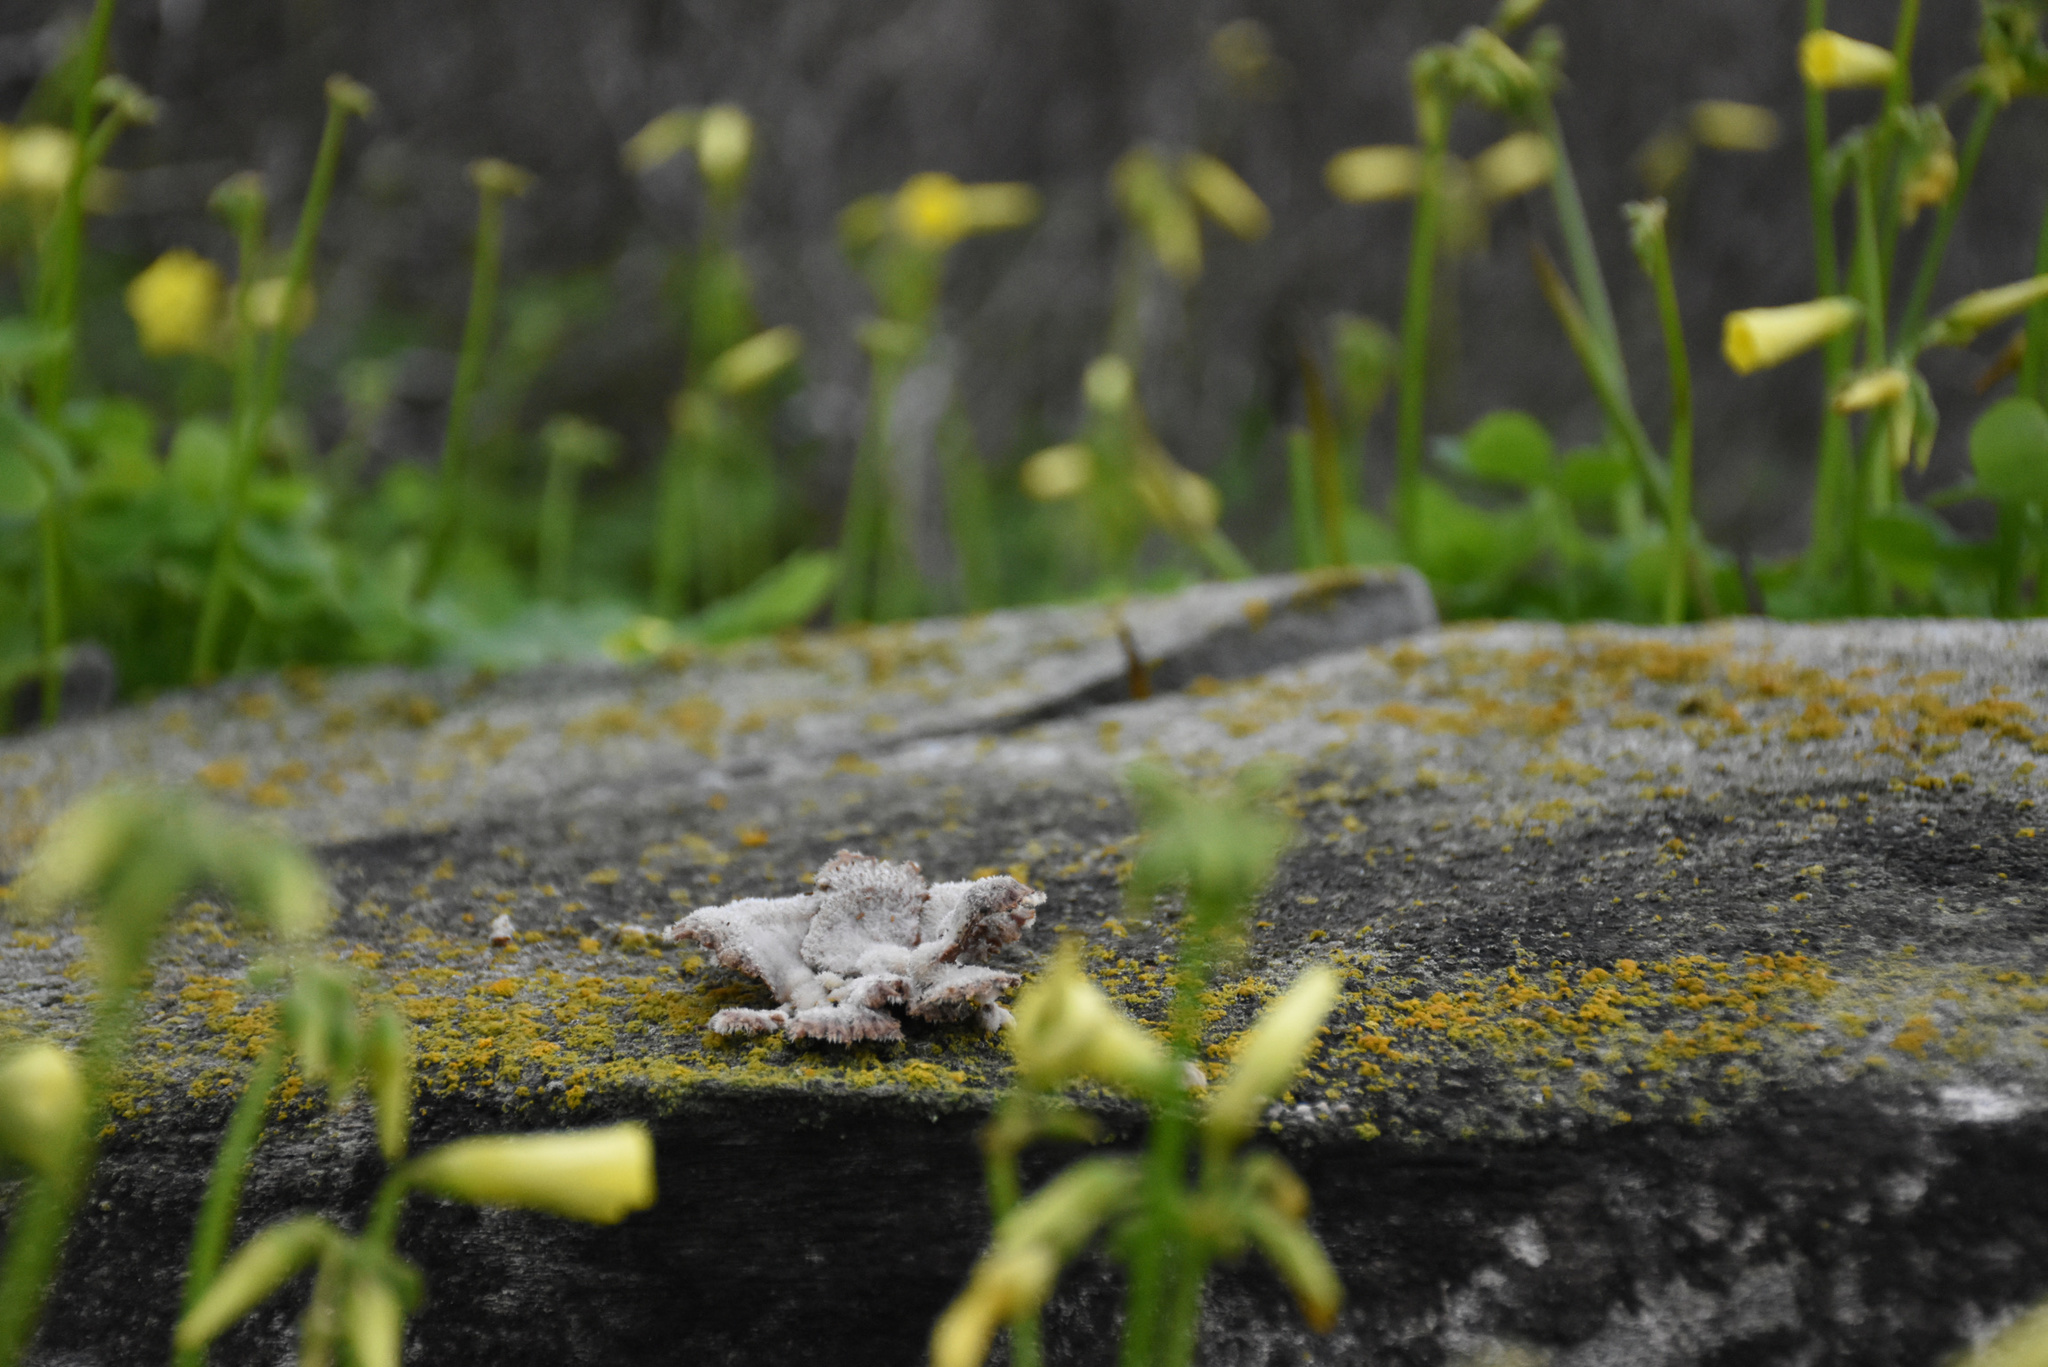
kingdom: Fungi
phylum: Basidiomycota
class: Agaricomycetes
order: Agaricales
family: Schizophyllaceae
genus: Schizophyllum
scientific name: Schizophyllum commune
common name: Common porecrust
